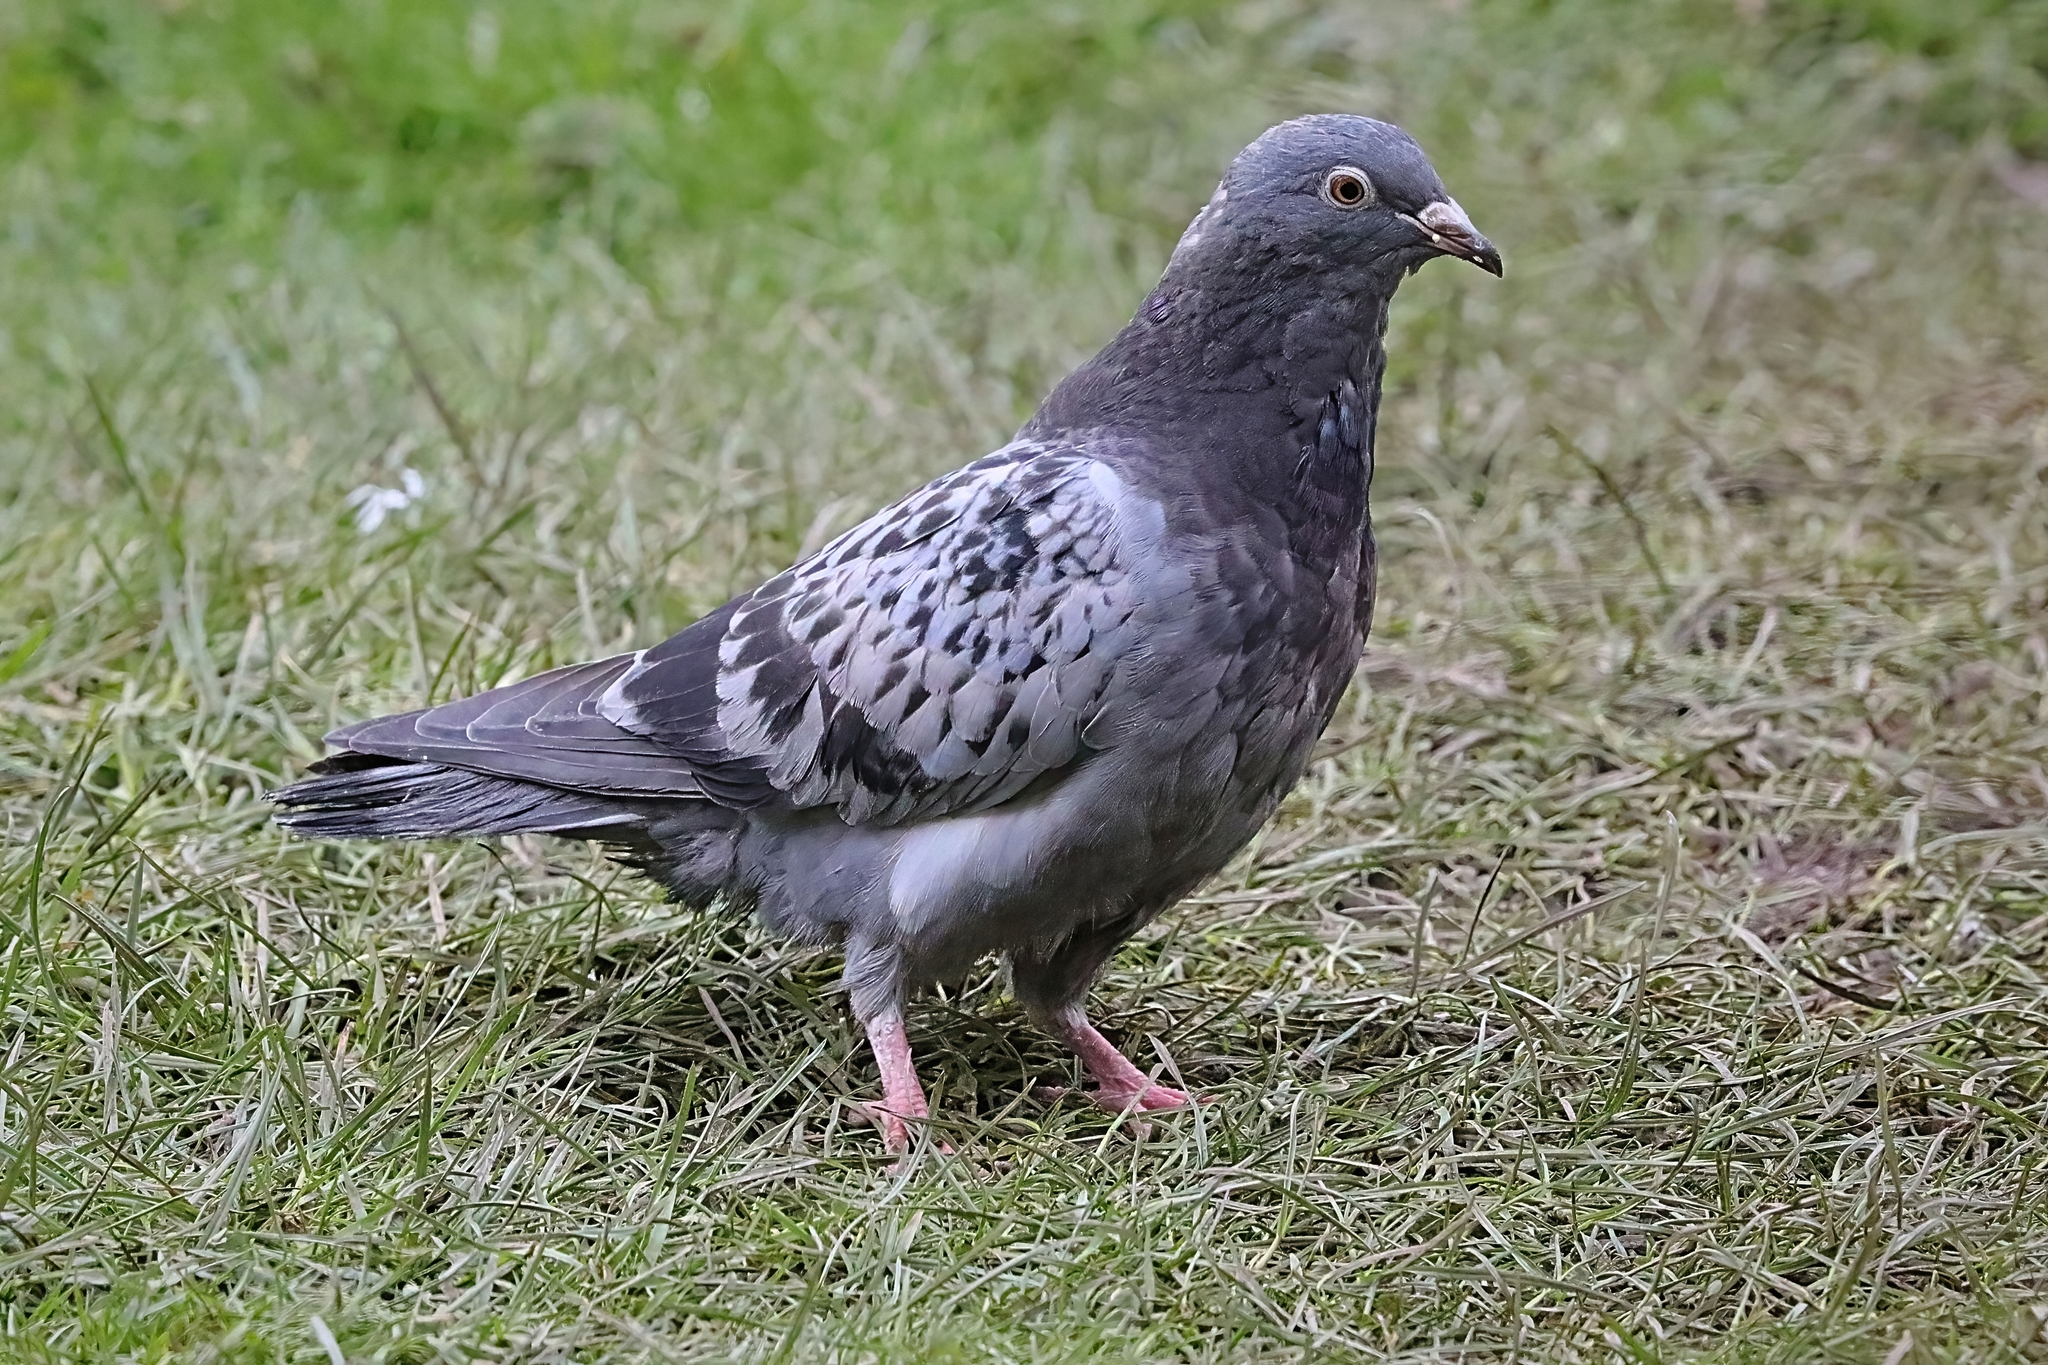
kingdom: Animalia
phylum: Chordata
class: Aves
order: Columbiformes
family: Columbidae
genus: Columba
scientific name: Columba livia
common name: Rock pigeon
